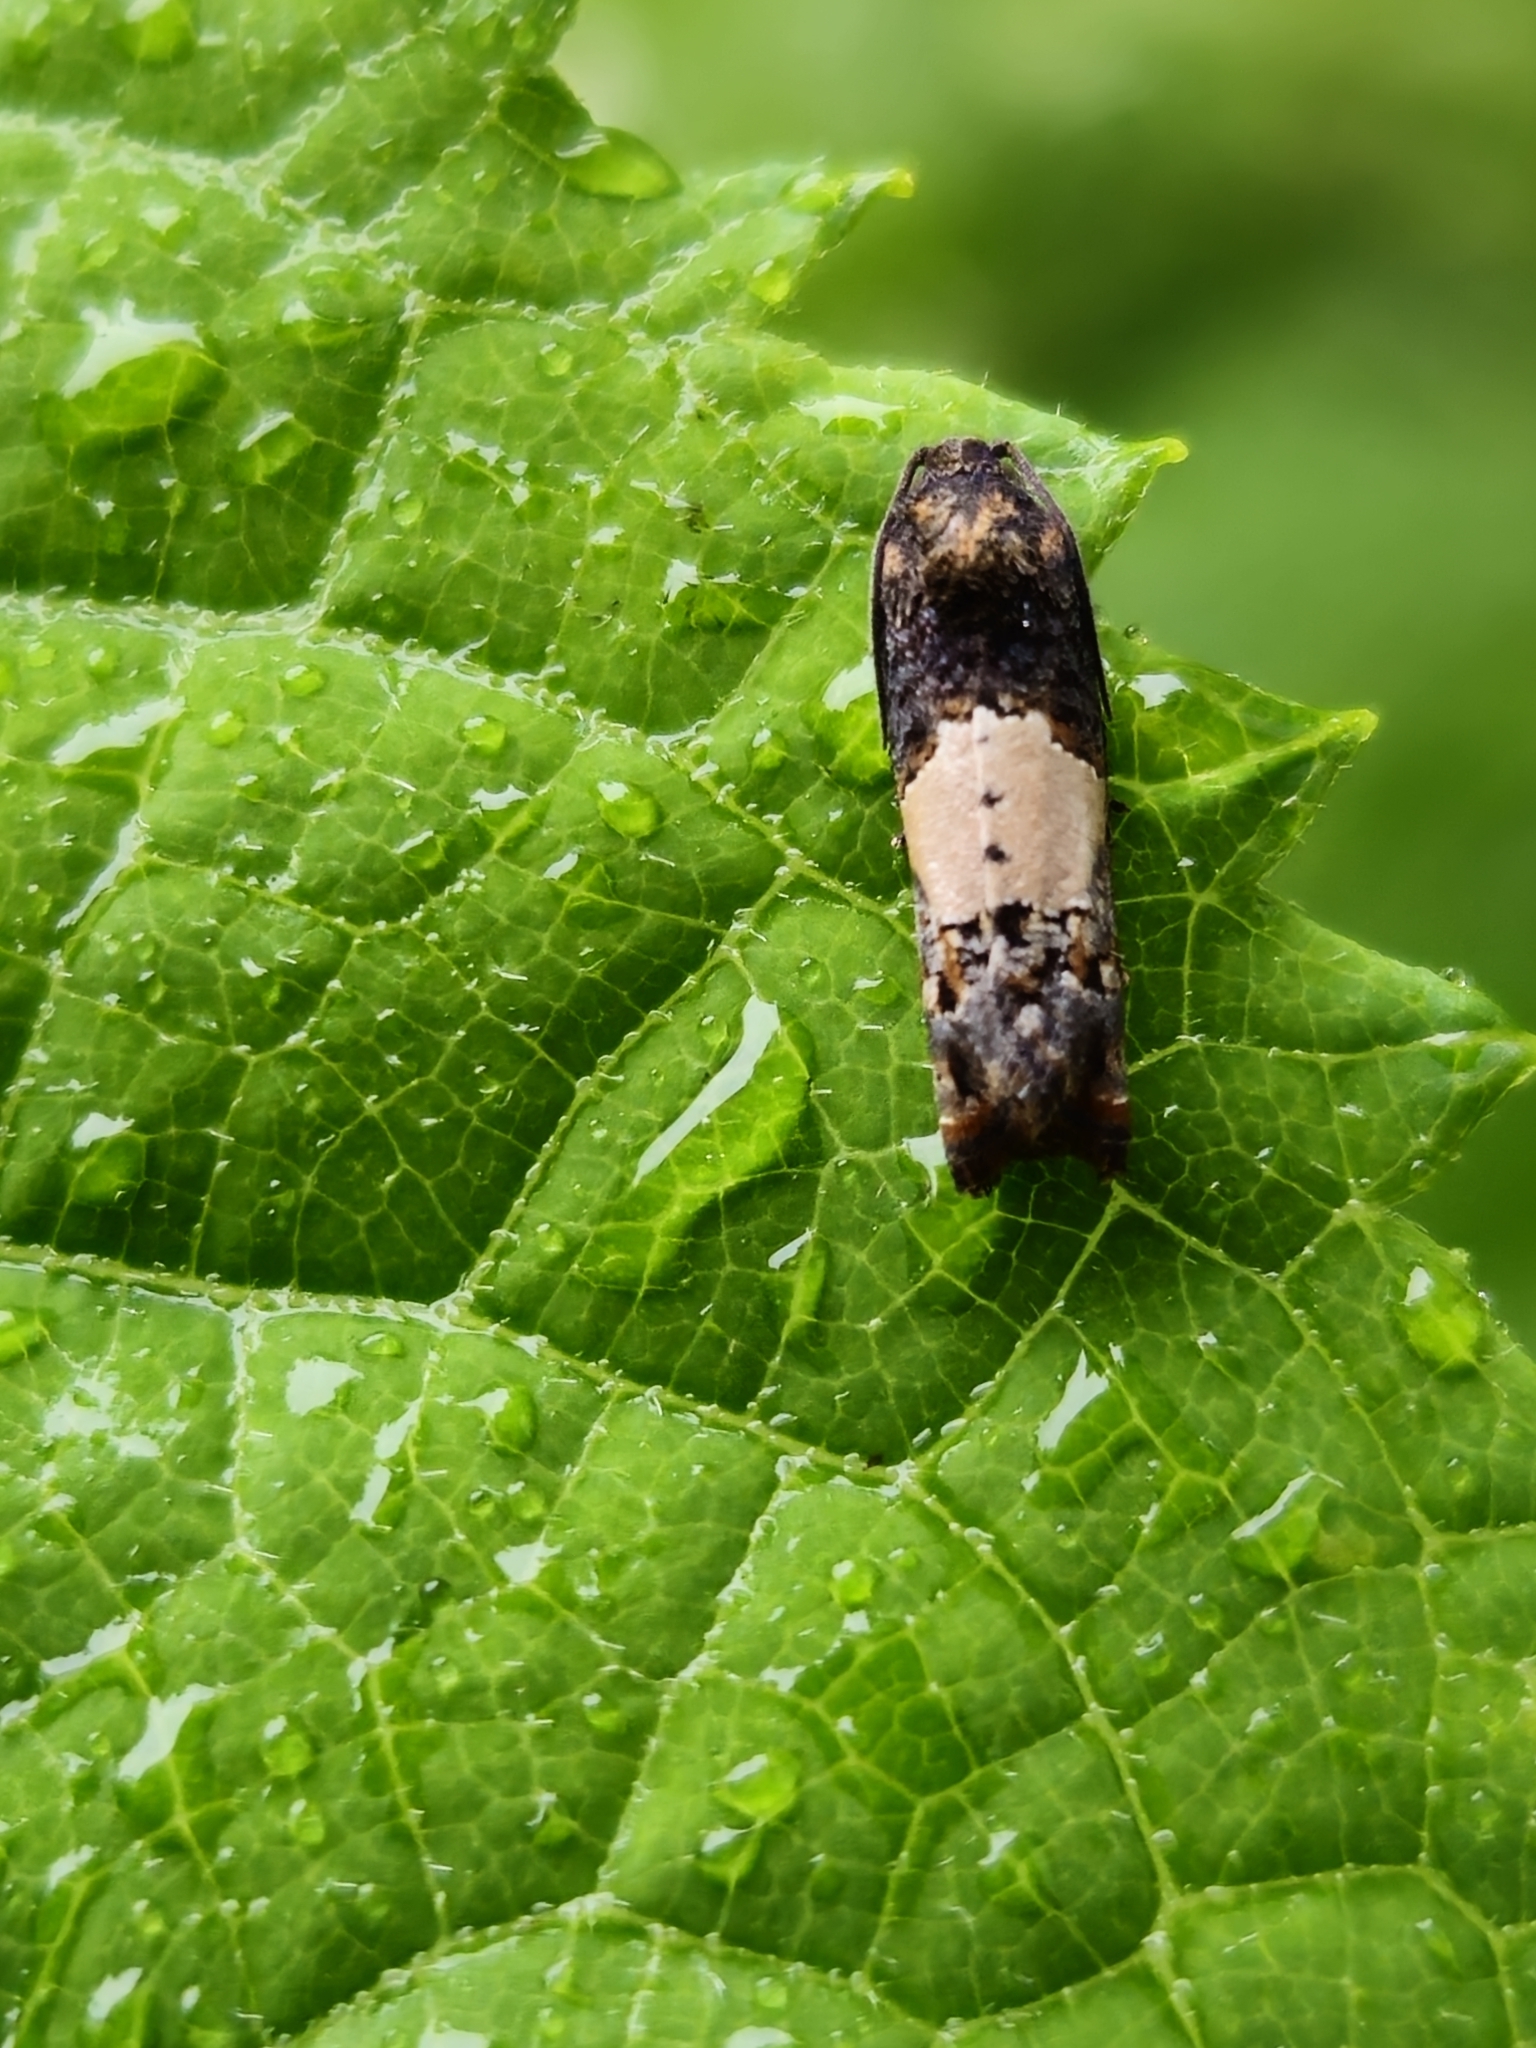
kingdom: Animalia
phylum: Arthropoda
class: Insecta
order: Lepidoptera
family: Tortricidae
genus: Epiblema
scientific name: Epiblema glenni
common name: Glenn's epiblema
